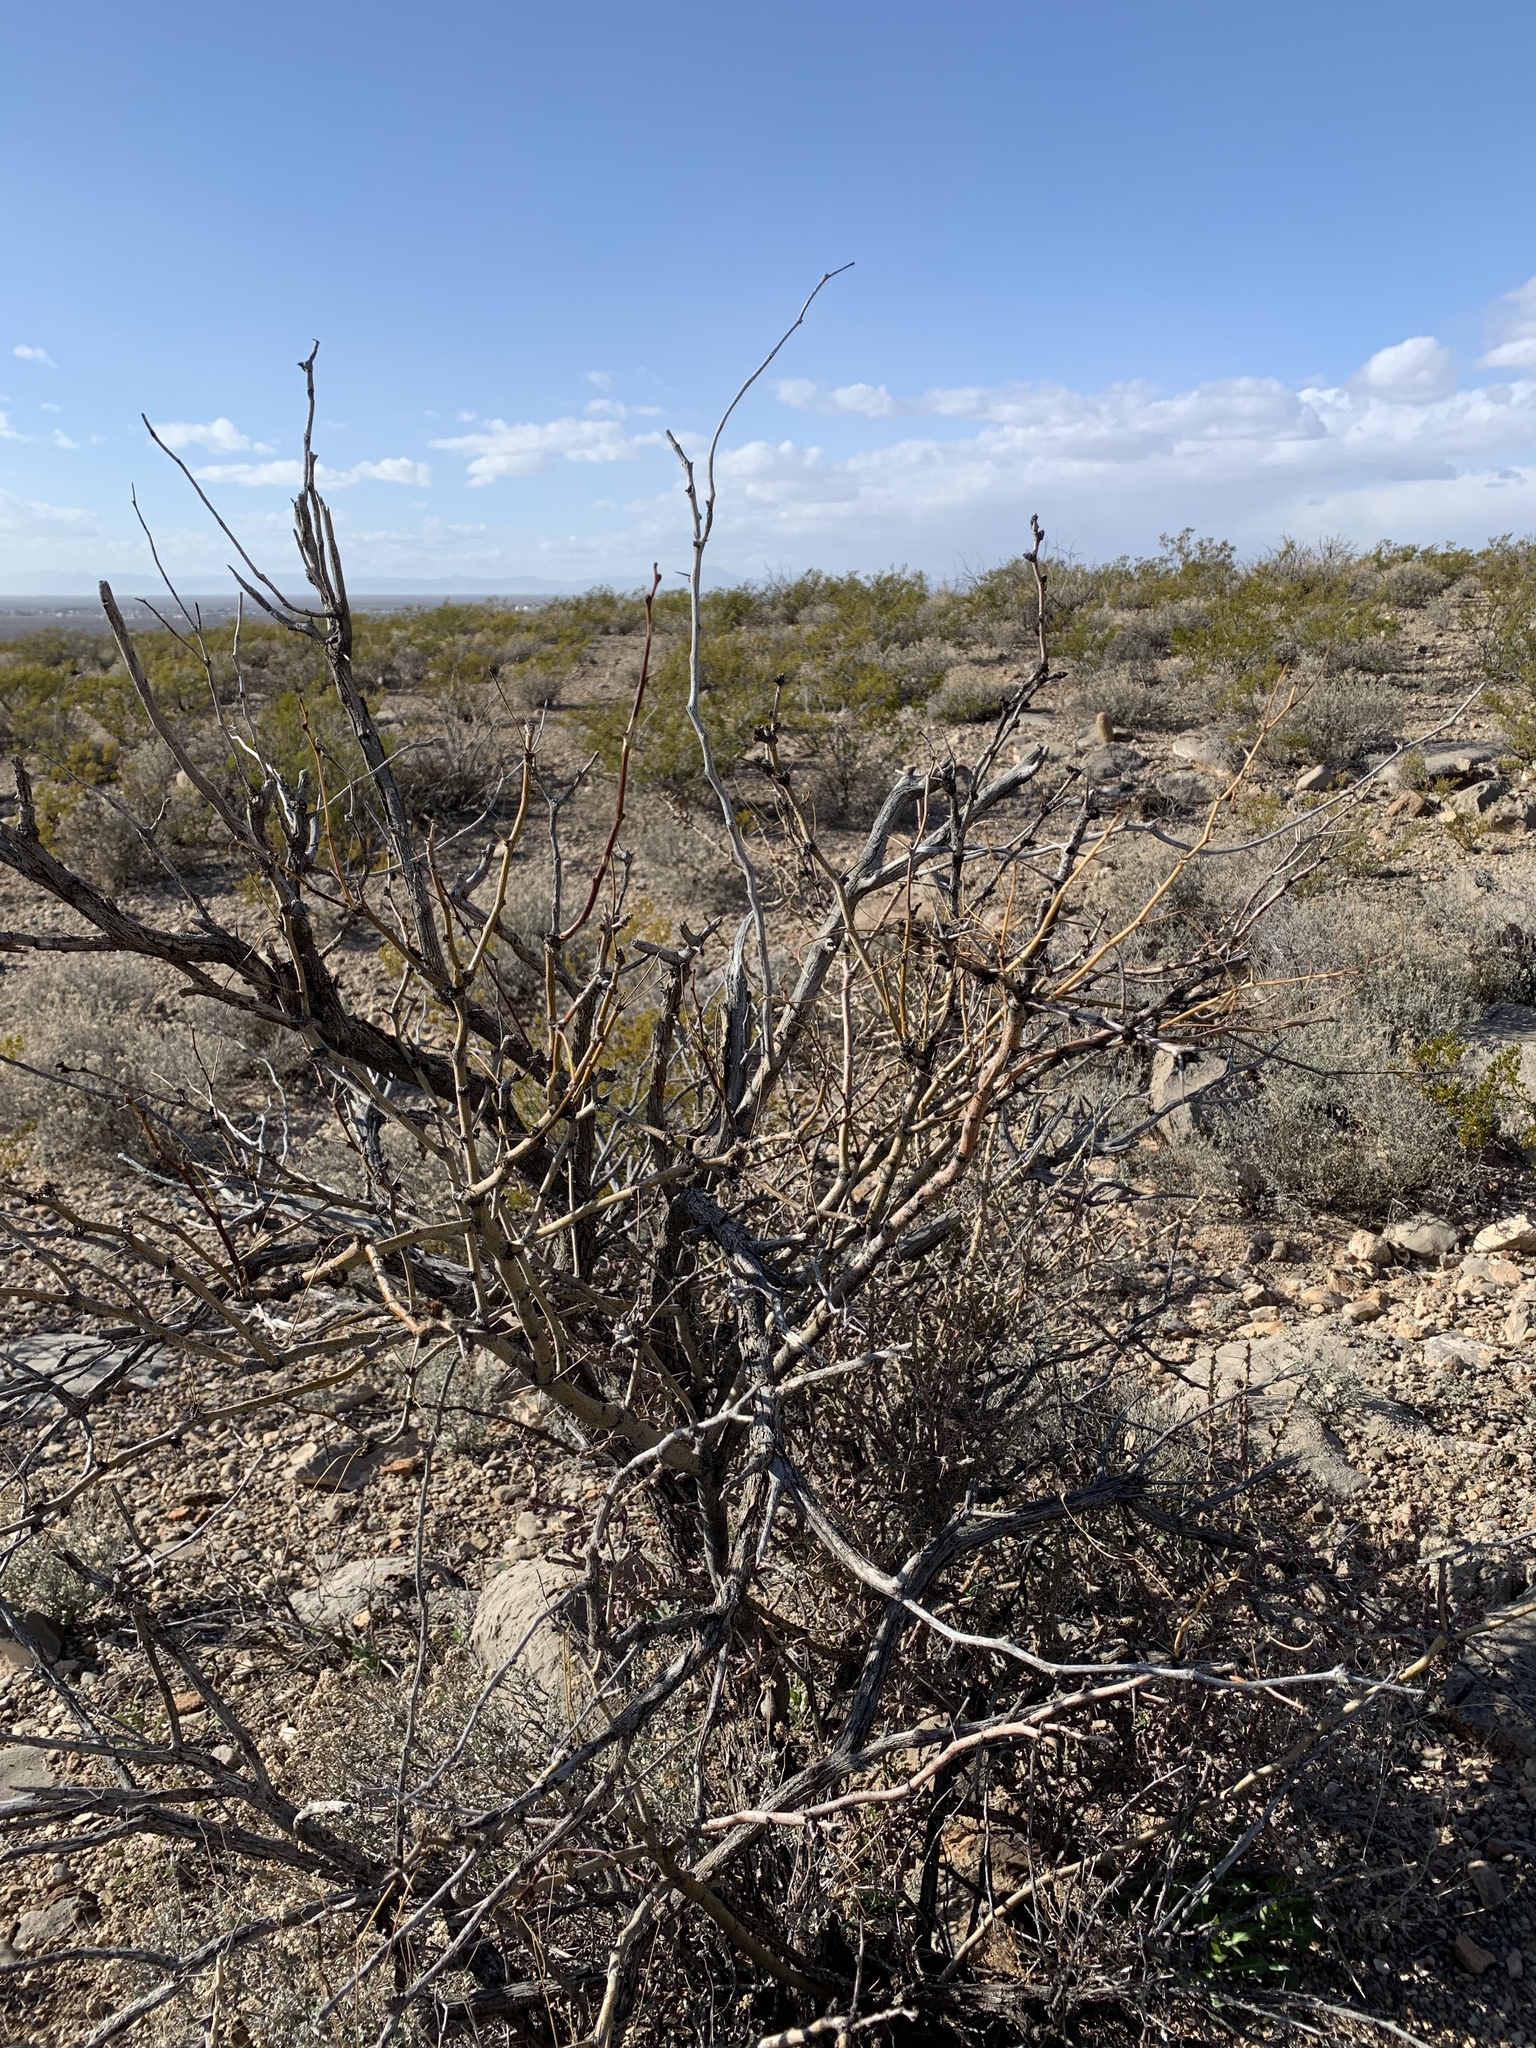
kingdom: Plantae
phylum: Tracheophyta
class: Magnoliopsida
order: Fabales
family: Fabaceae
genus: Prosopis
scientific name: Prosopis glandulosa
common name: Honey mesquite
